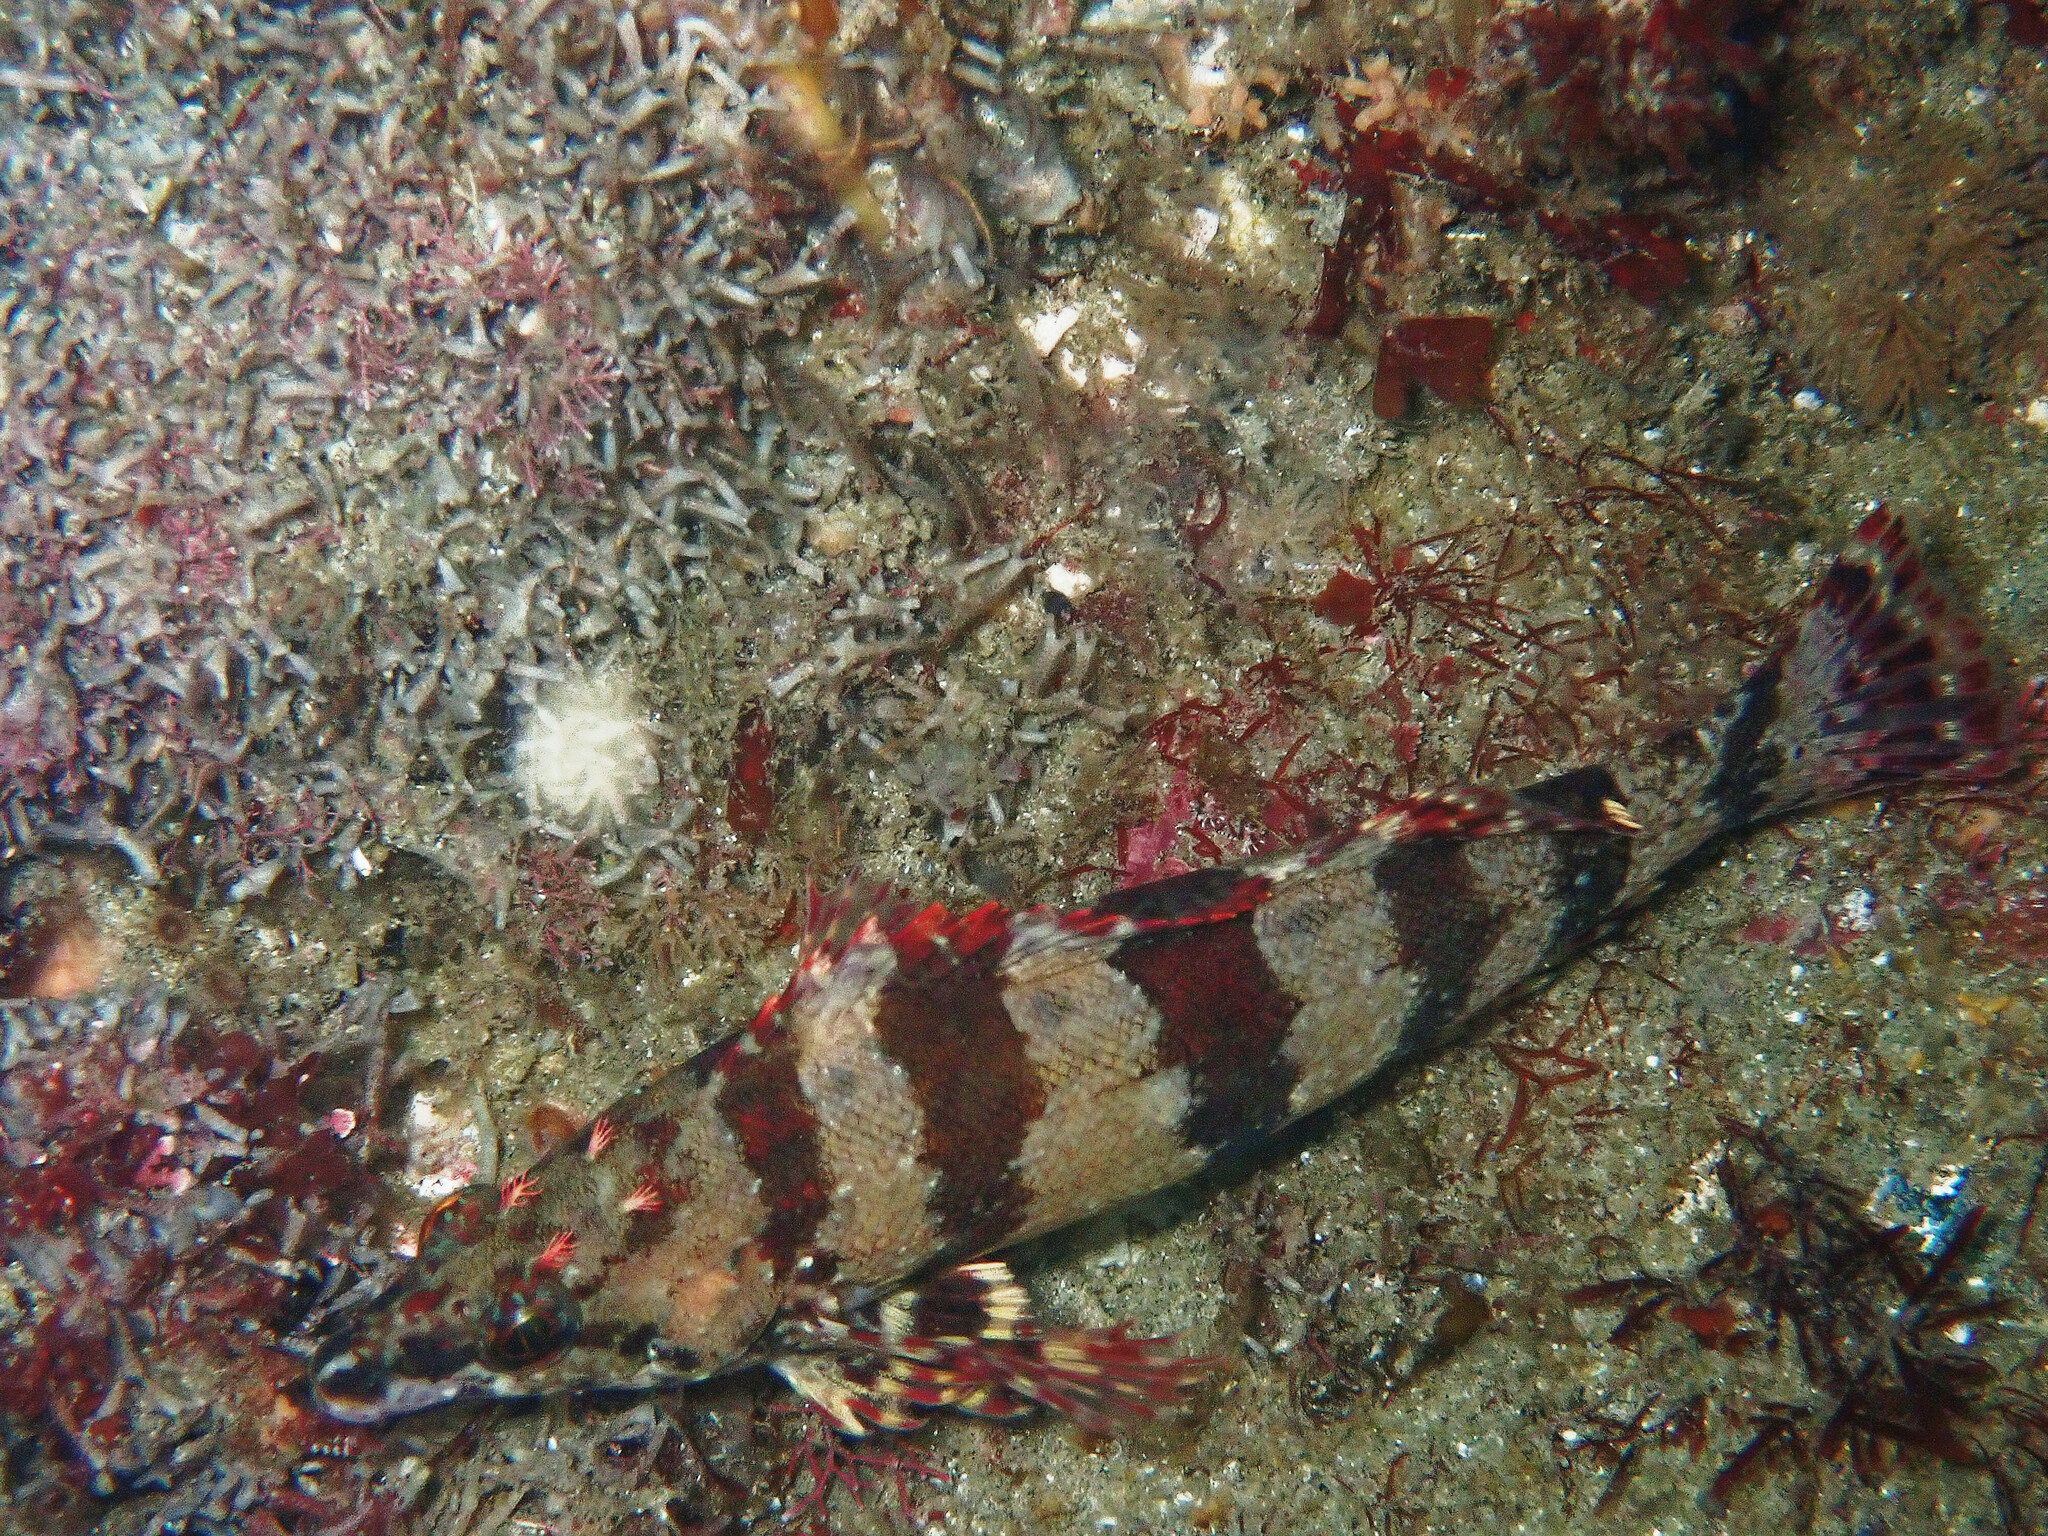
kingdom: Animalia
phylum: Chordata
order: Scorpaeniformes
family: Hexagrammidae
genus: Oxylebius
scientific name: Oxylebius pictus
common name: Painted greenling
